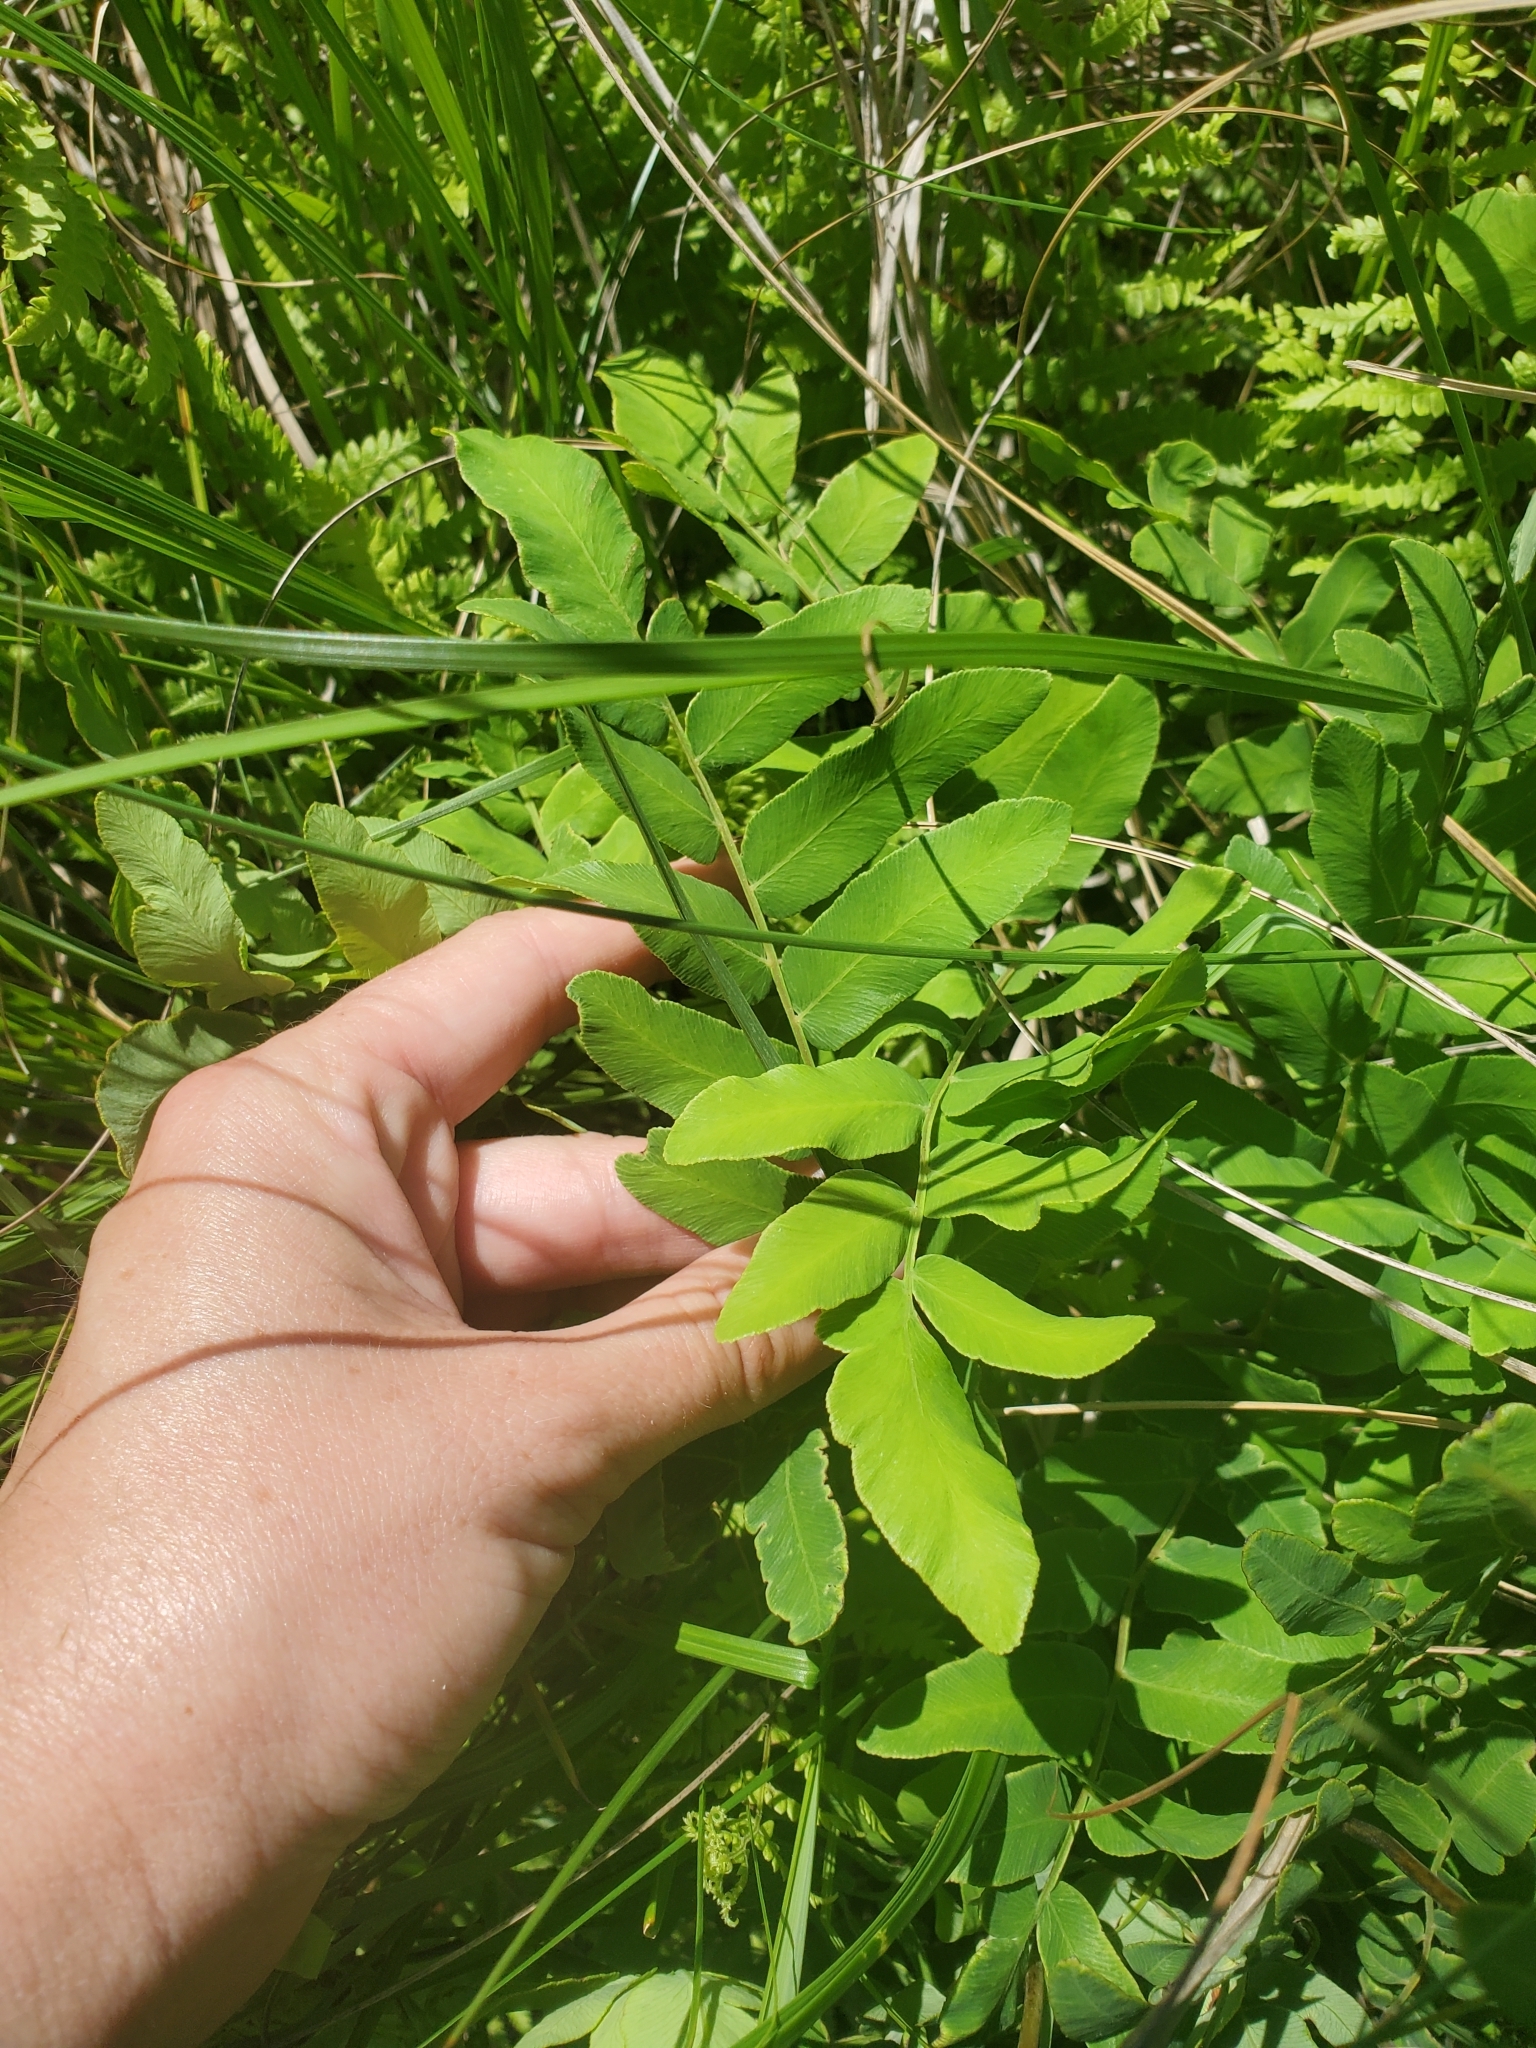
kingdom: Plantae
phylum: Tracheophyta
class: Polypodiopsida
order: Osmundales
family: Osmundaceae
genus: Osmunda
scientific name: Osmunda spectabilis
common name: American royal fern
